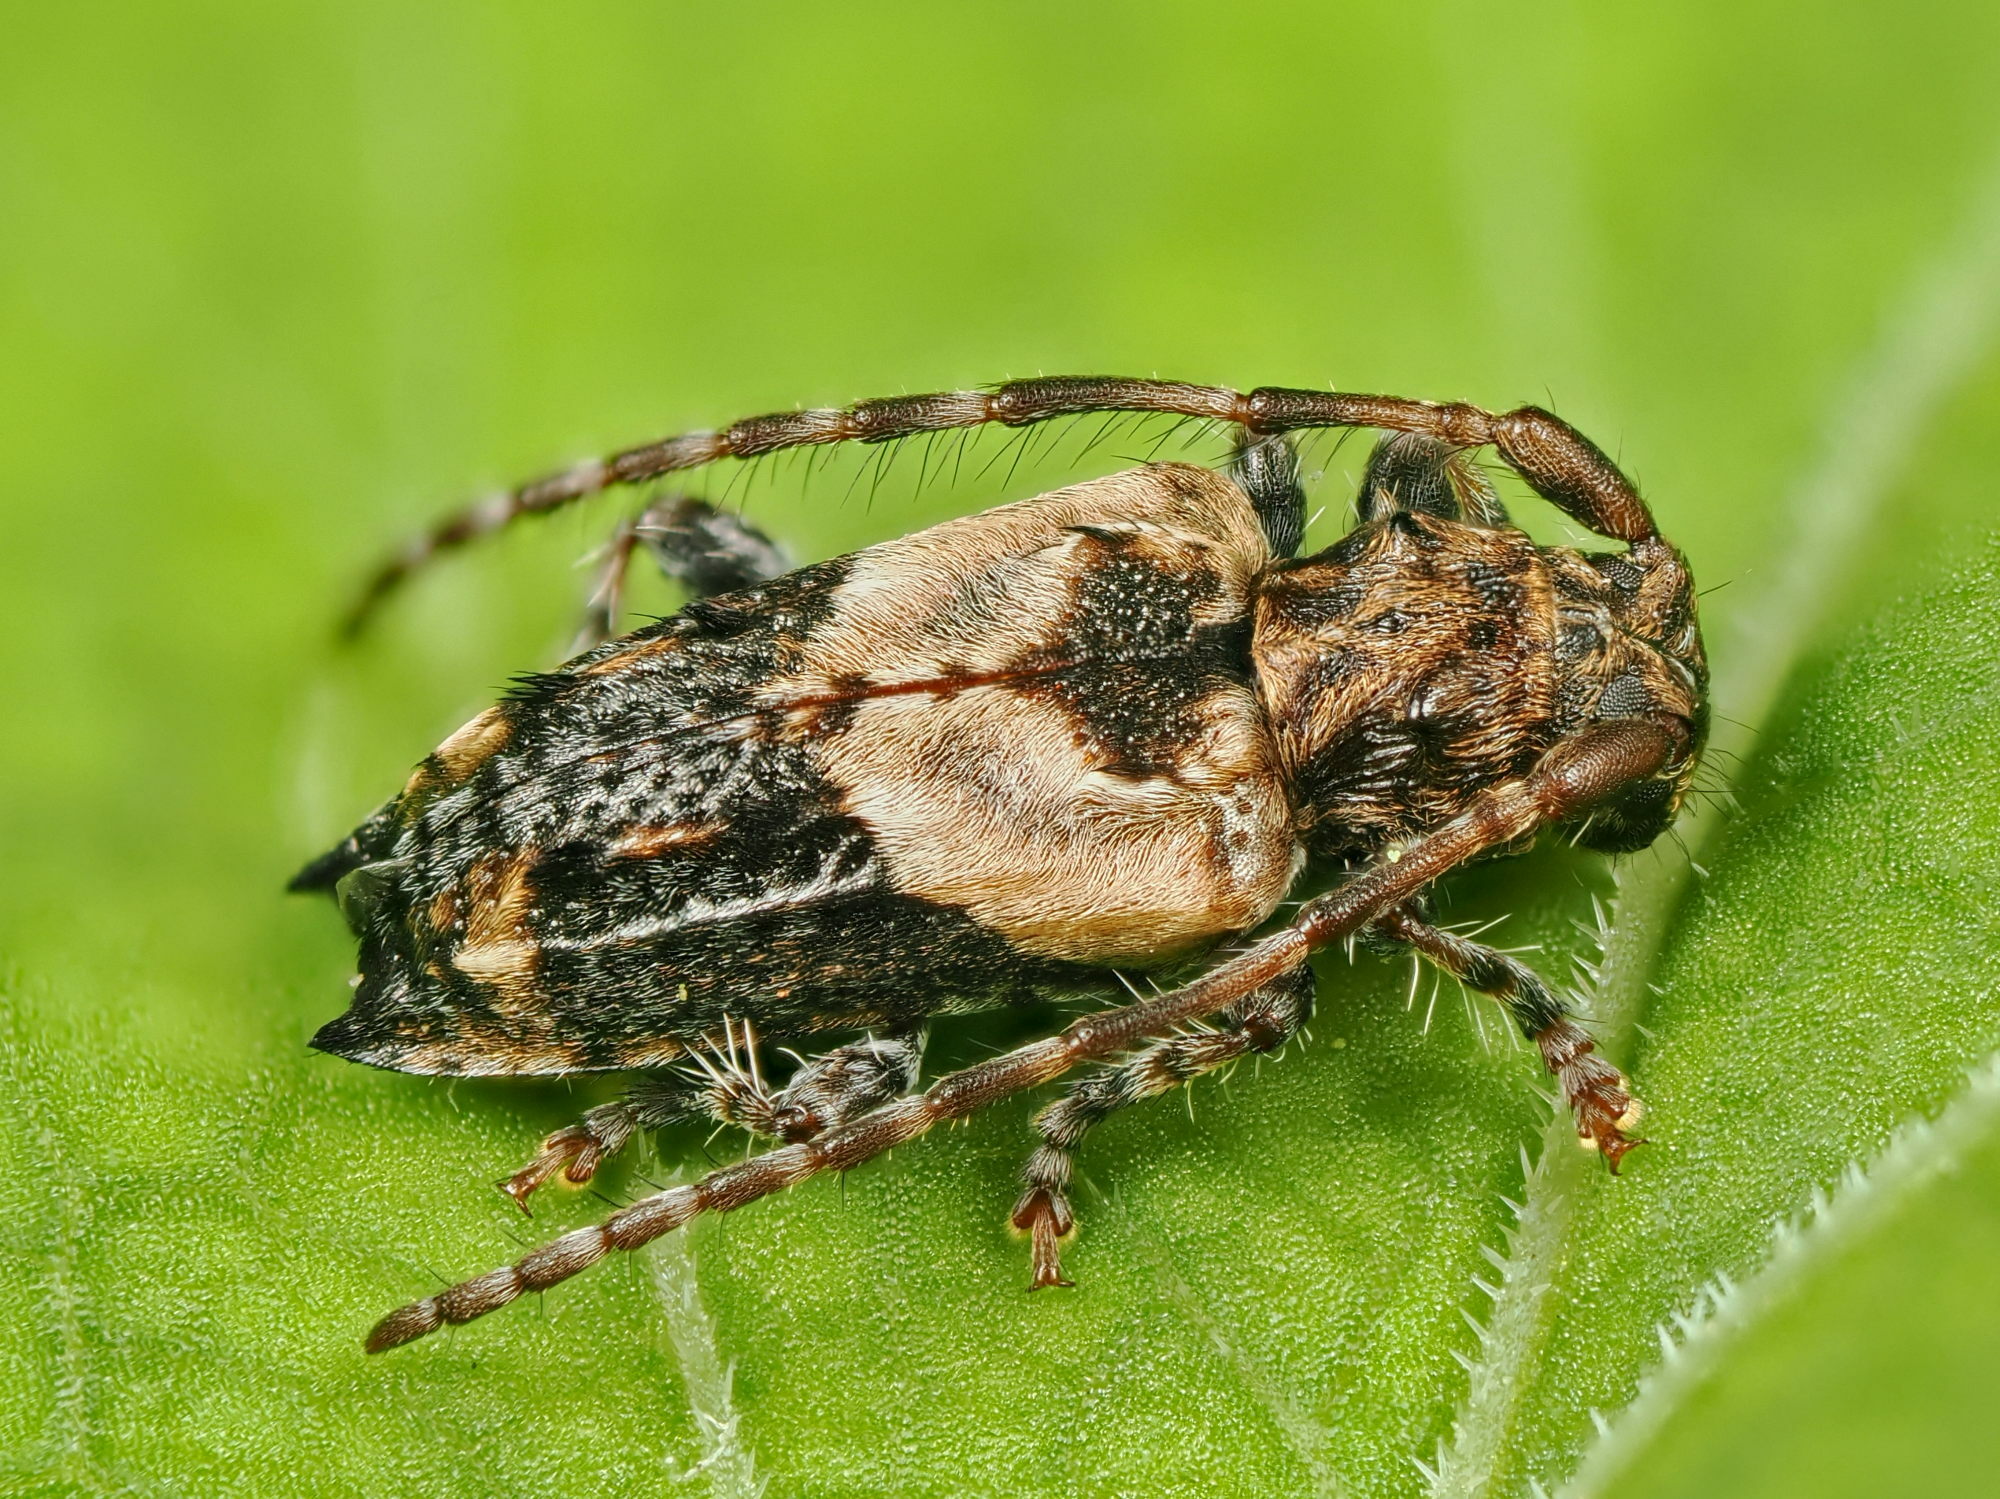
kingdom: Animalia
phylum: Arthropoda
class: Insecta
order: Coleoptera
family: Cerambycidae
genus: Pogonocherus
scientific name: Pogonocherus hispidus
